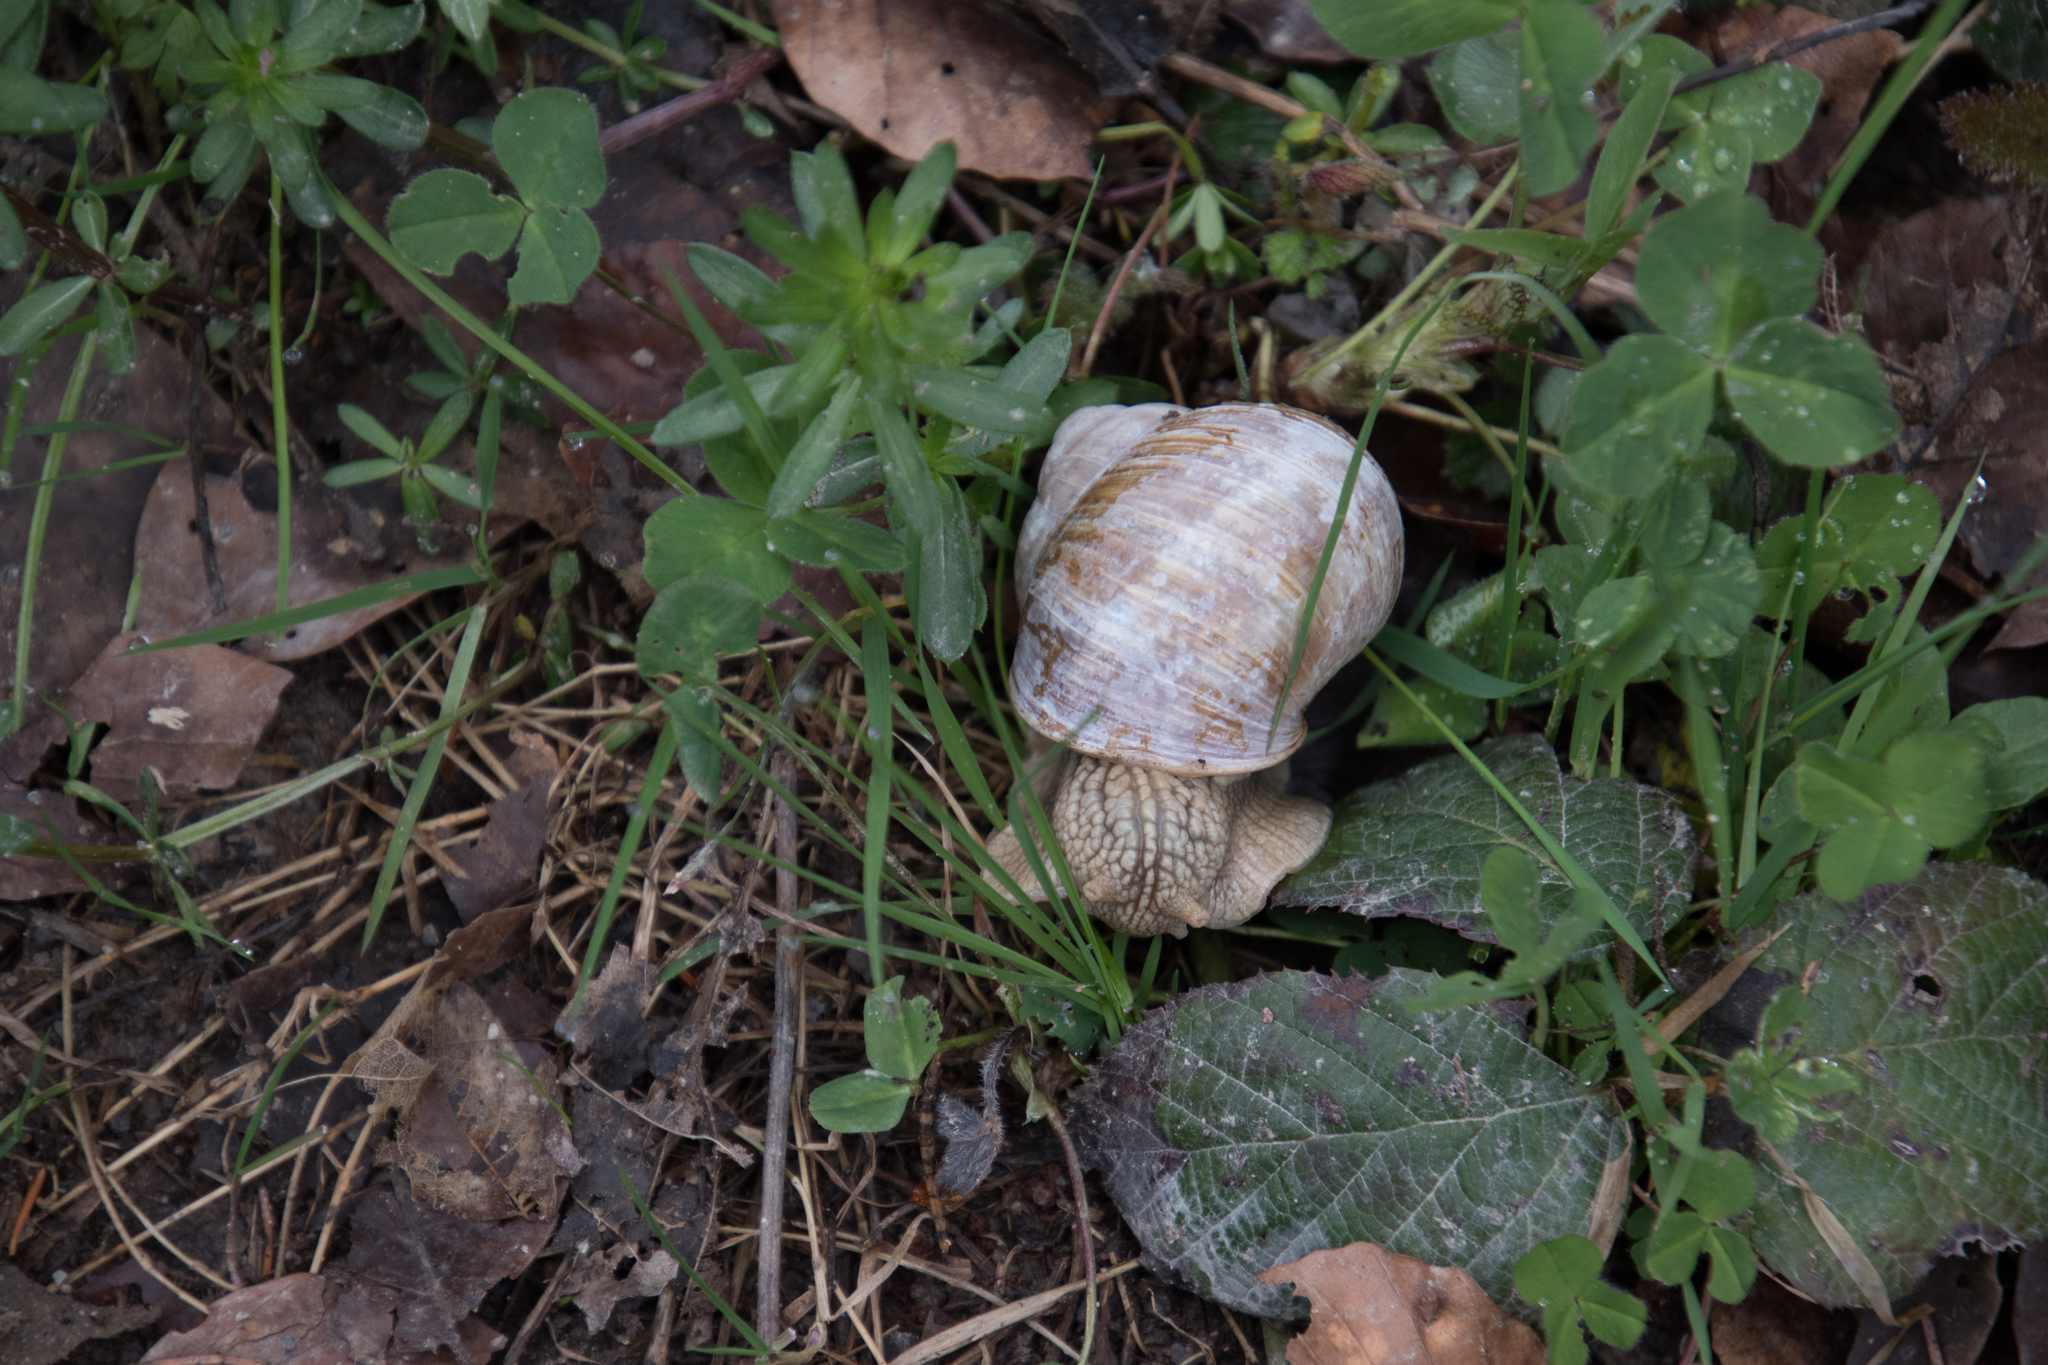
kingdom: Animalia
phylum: Mollusca
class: Gastropoda
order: Stylommatophora
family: Helicidae
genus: Helix
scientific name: Helix pomatia
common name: Roman snail
